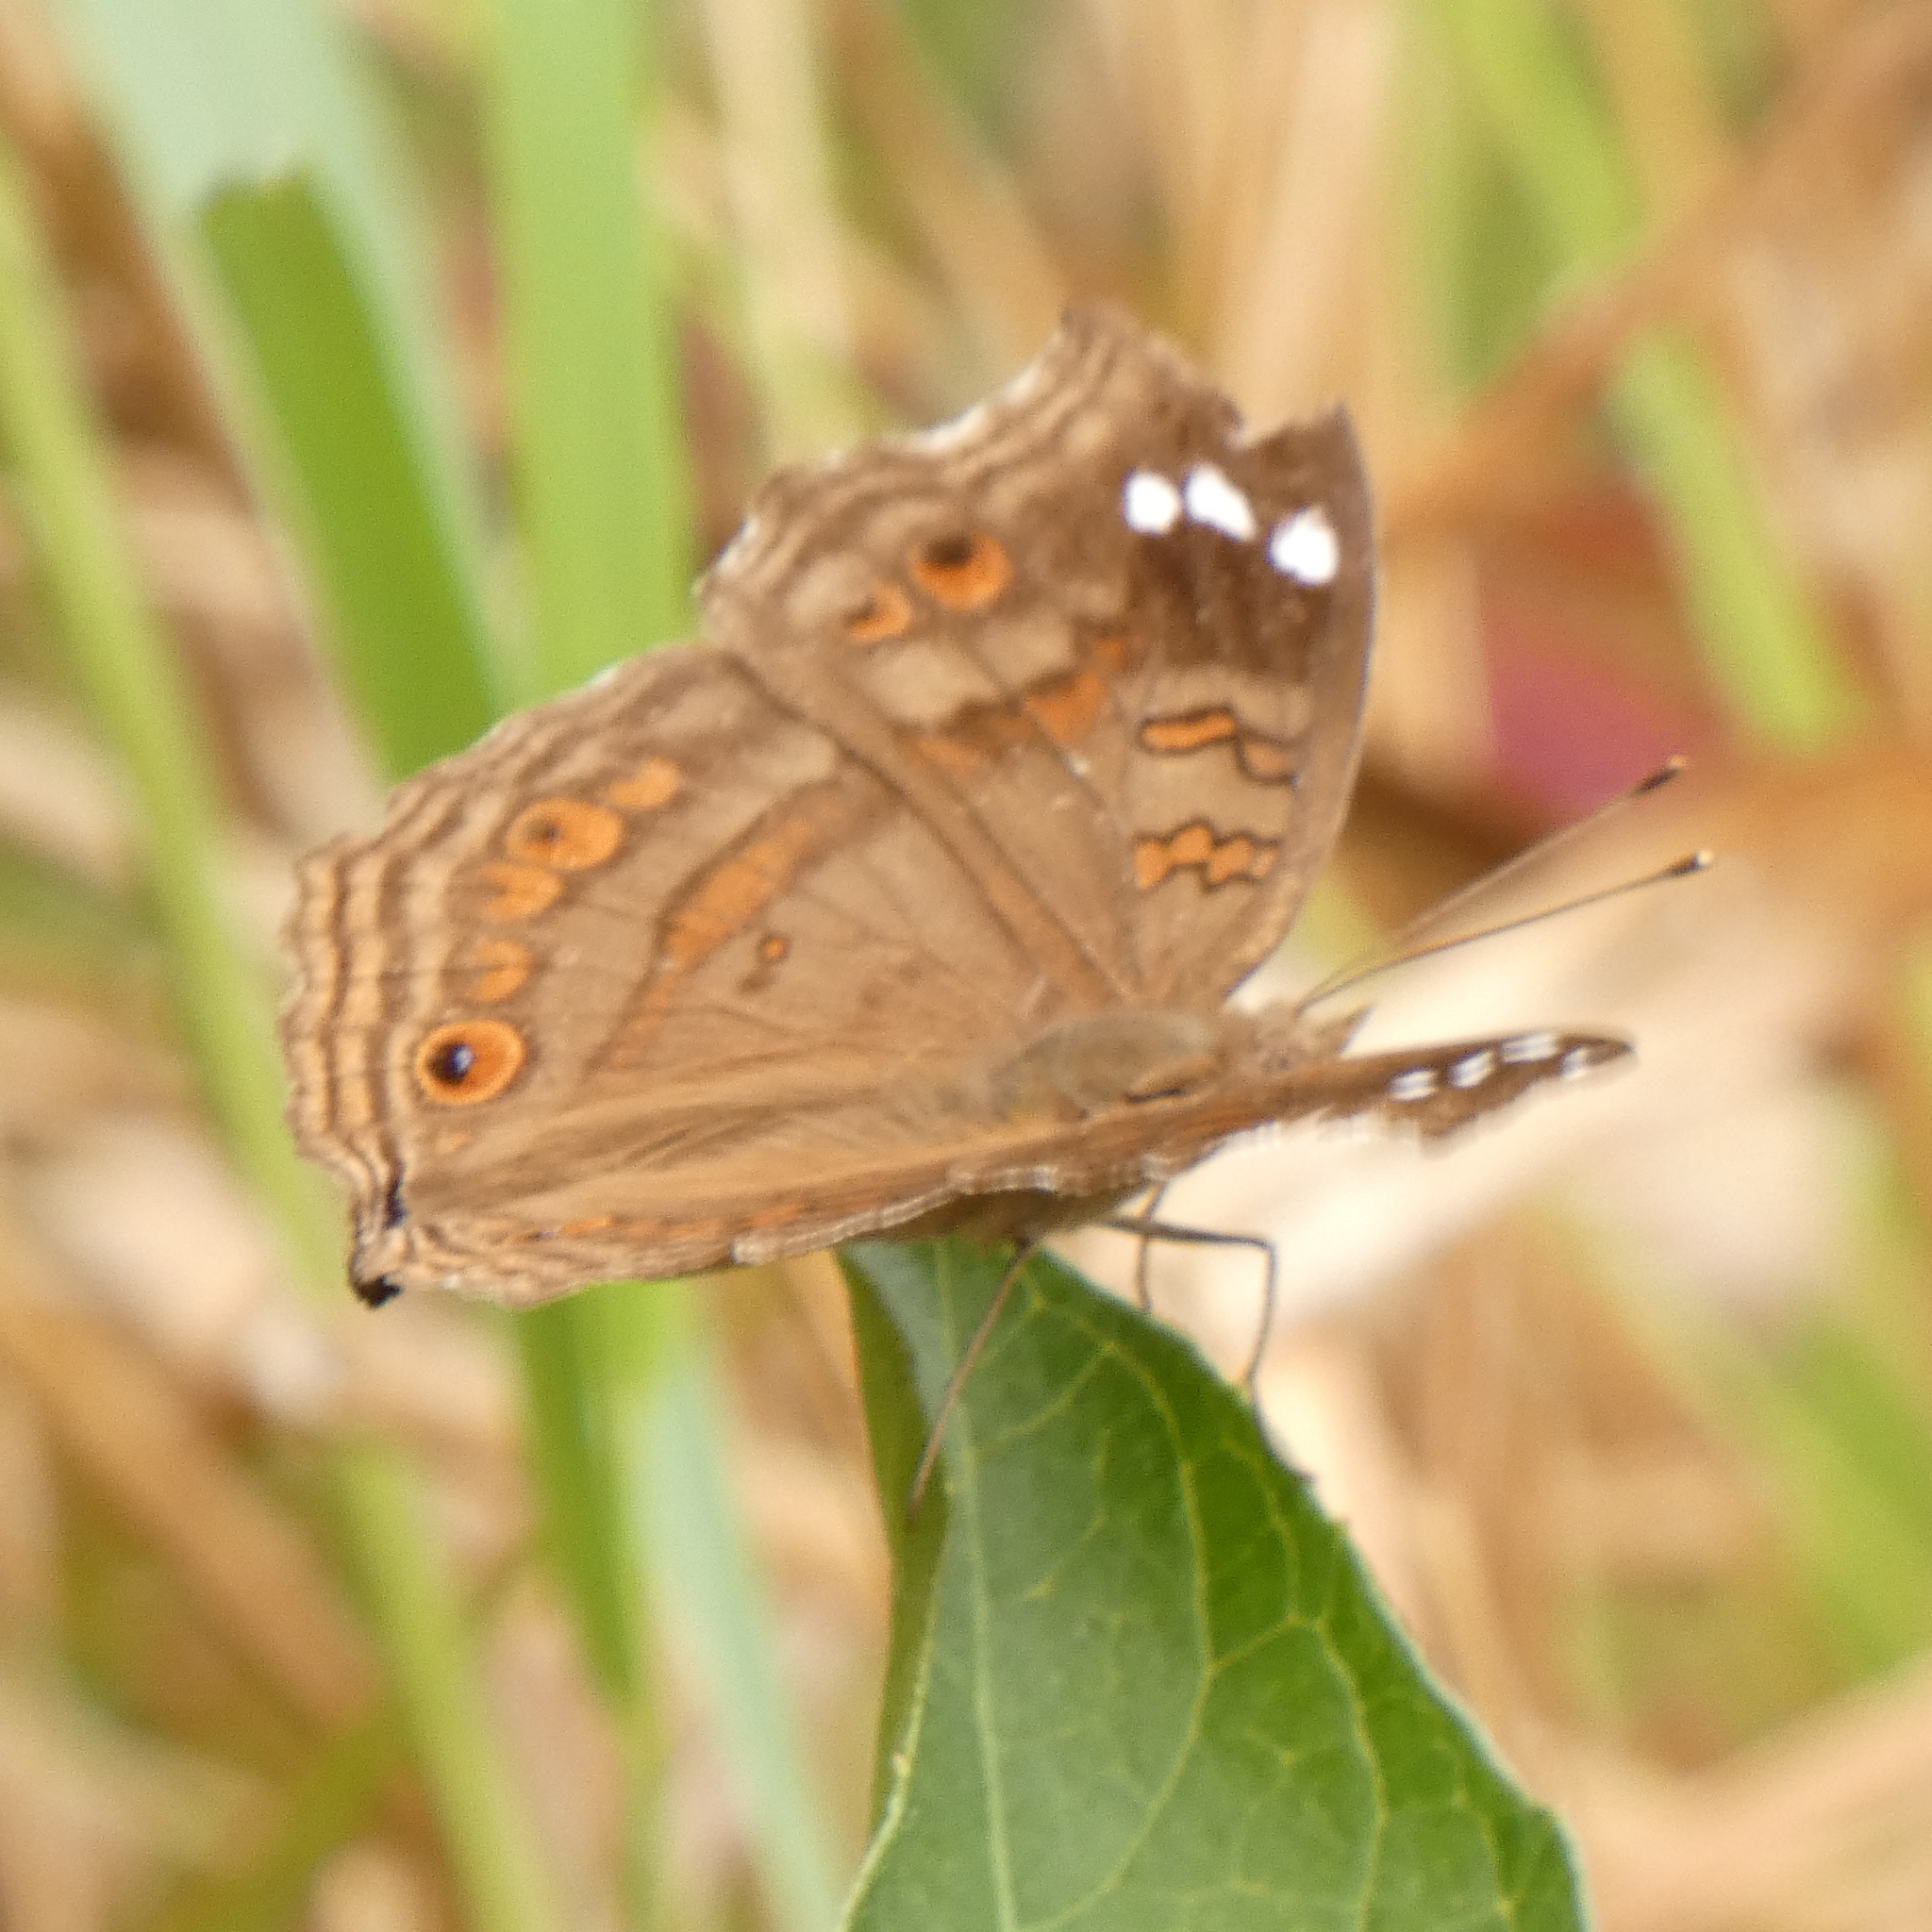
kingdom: Animalia
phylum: Arthropoda
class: Insecta
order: Lepidoptera
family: Nymphalidae
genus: Junonia
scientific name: Junonia natalica
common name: Brown pansy
